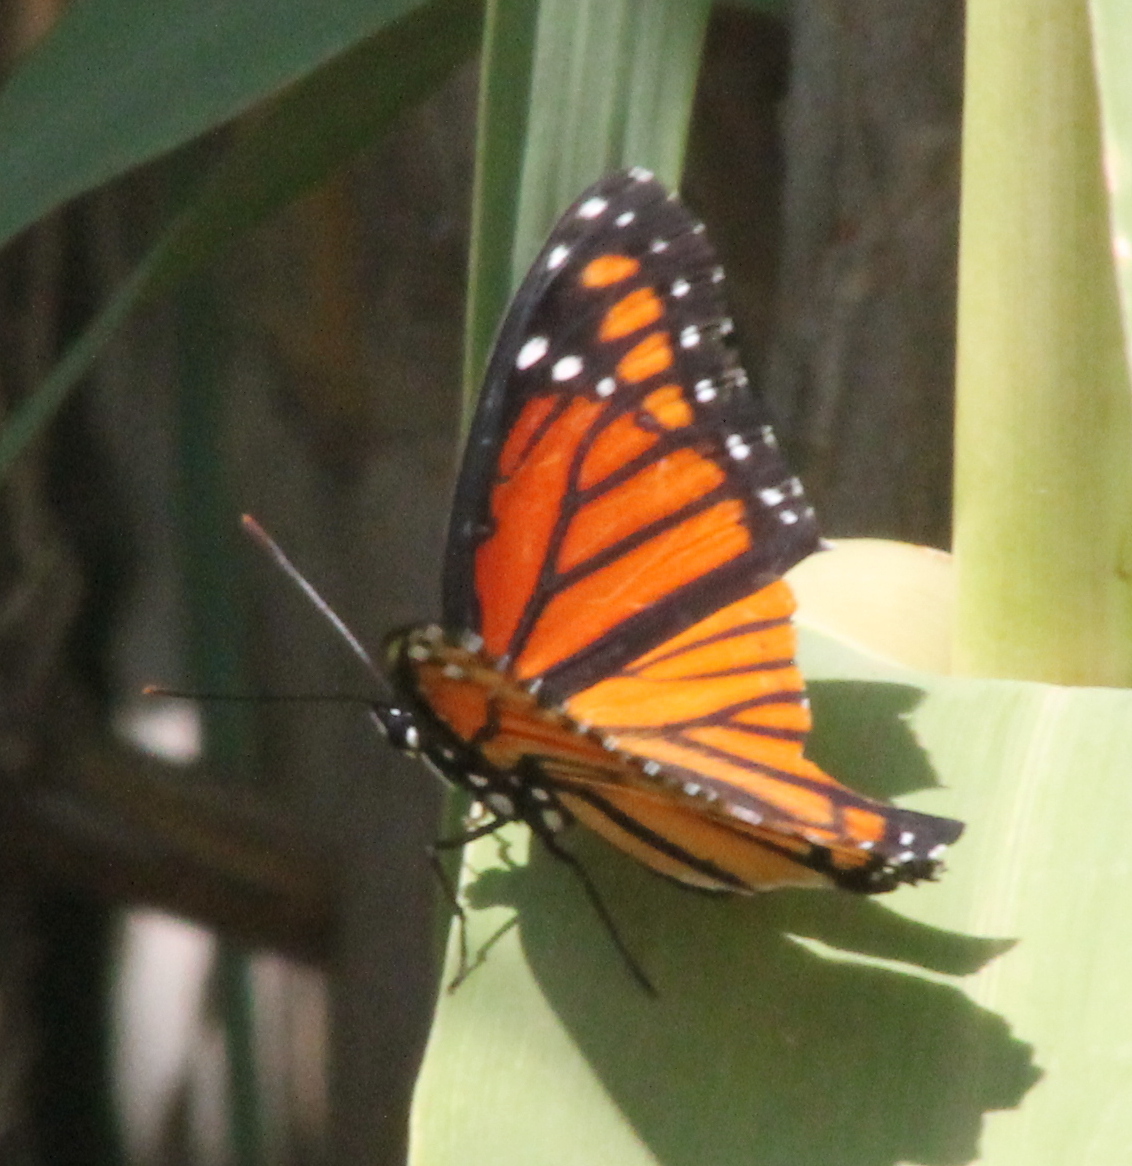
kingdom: Animalia
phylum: Arthropoda
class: Insecta
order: Lepidoptera
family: Nymphalidae
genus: Limenitis
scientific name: Limenitis archippus
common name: Viceroy
